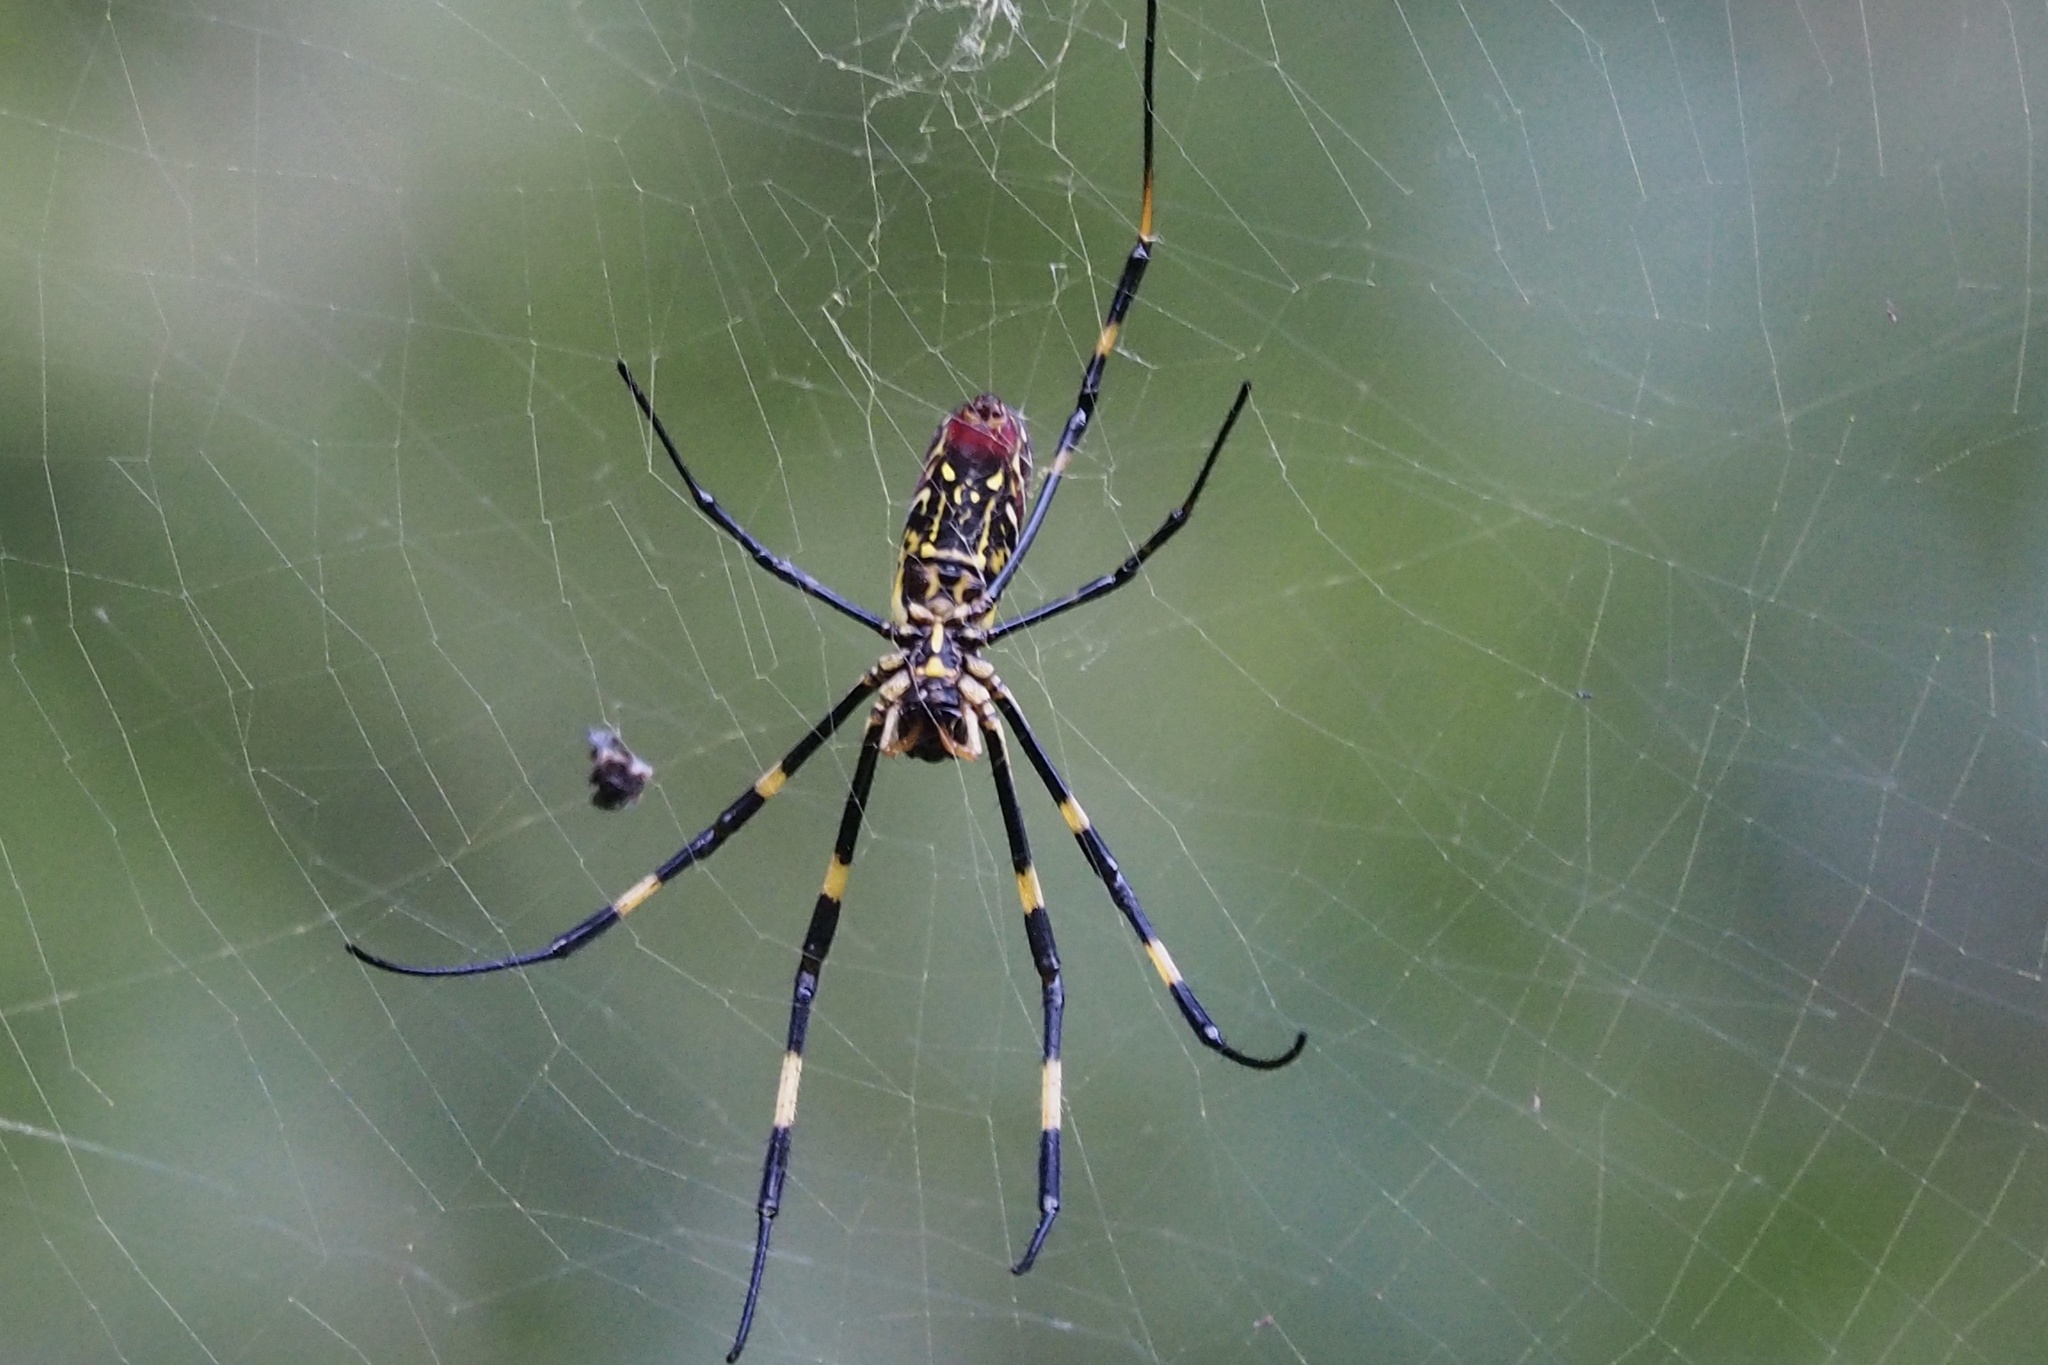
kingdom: Animalia
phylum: Arthropoda
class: Arachnida
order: Araneae
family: Araneidae
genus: Trichonephila
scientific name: Trichonephila clavata
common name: Jorō spider
